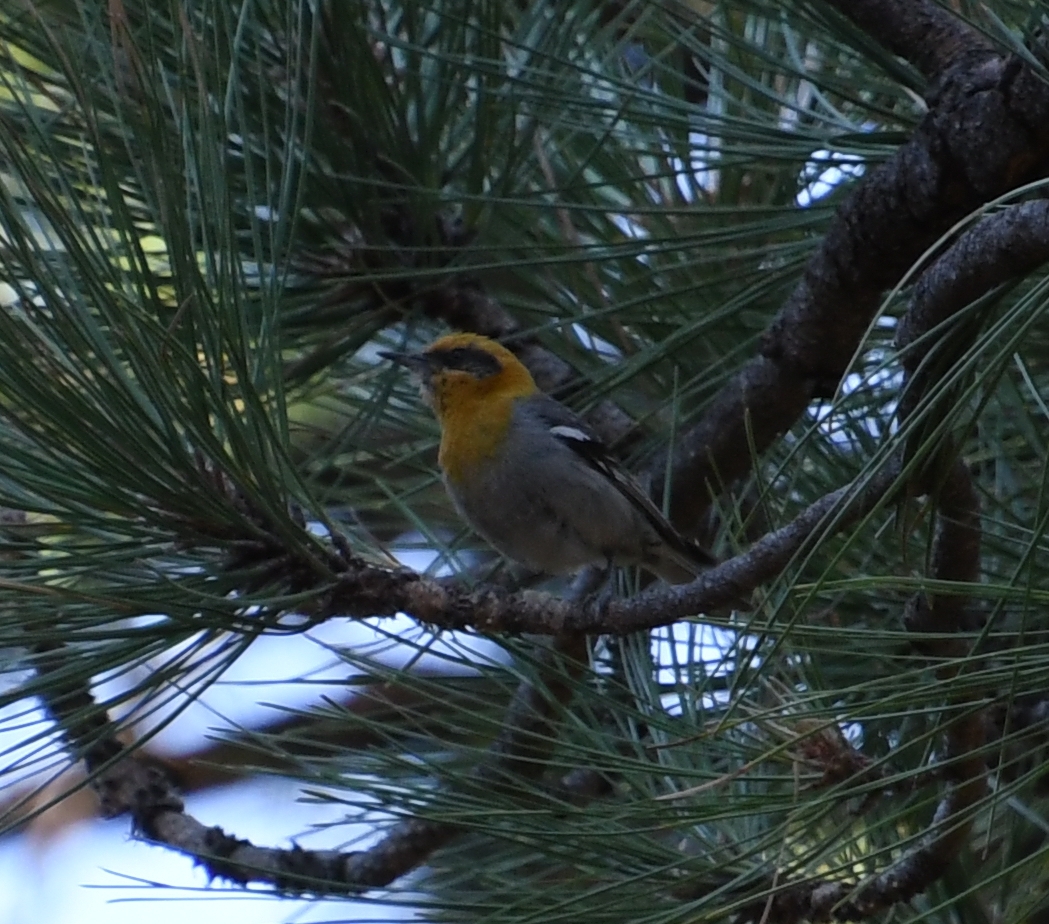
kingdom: Animalia
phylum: Chordata
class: Aves
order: Passeriformes
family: Peucedramidae
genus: Peucedramus
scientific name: Peucedramus taeniatus
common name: Olive warbler
